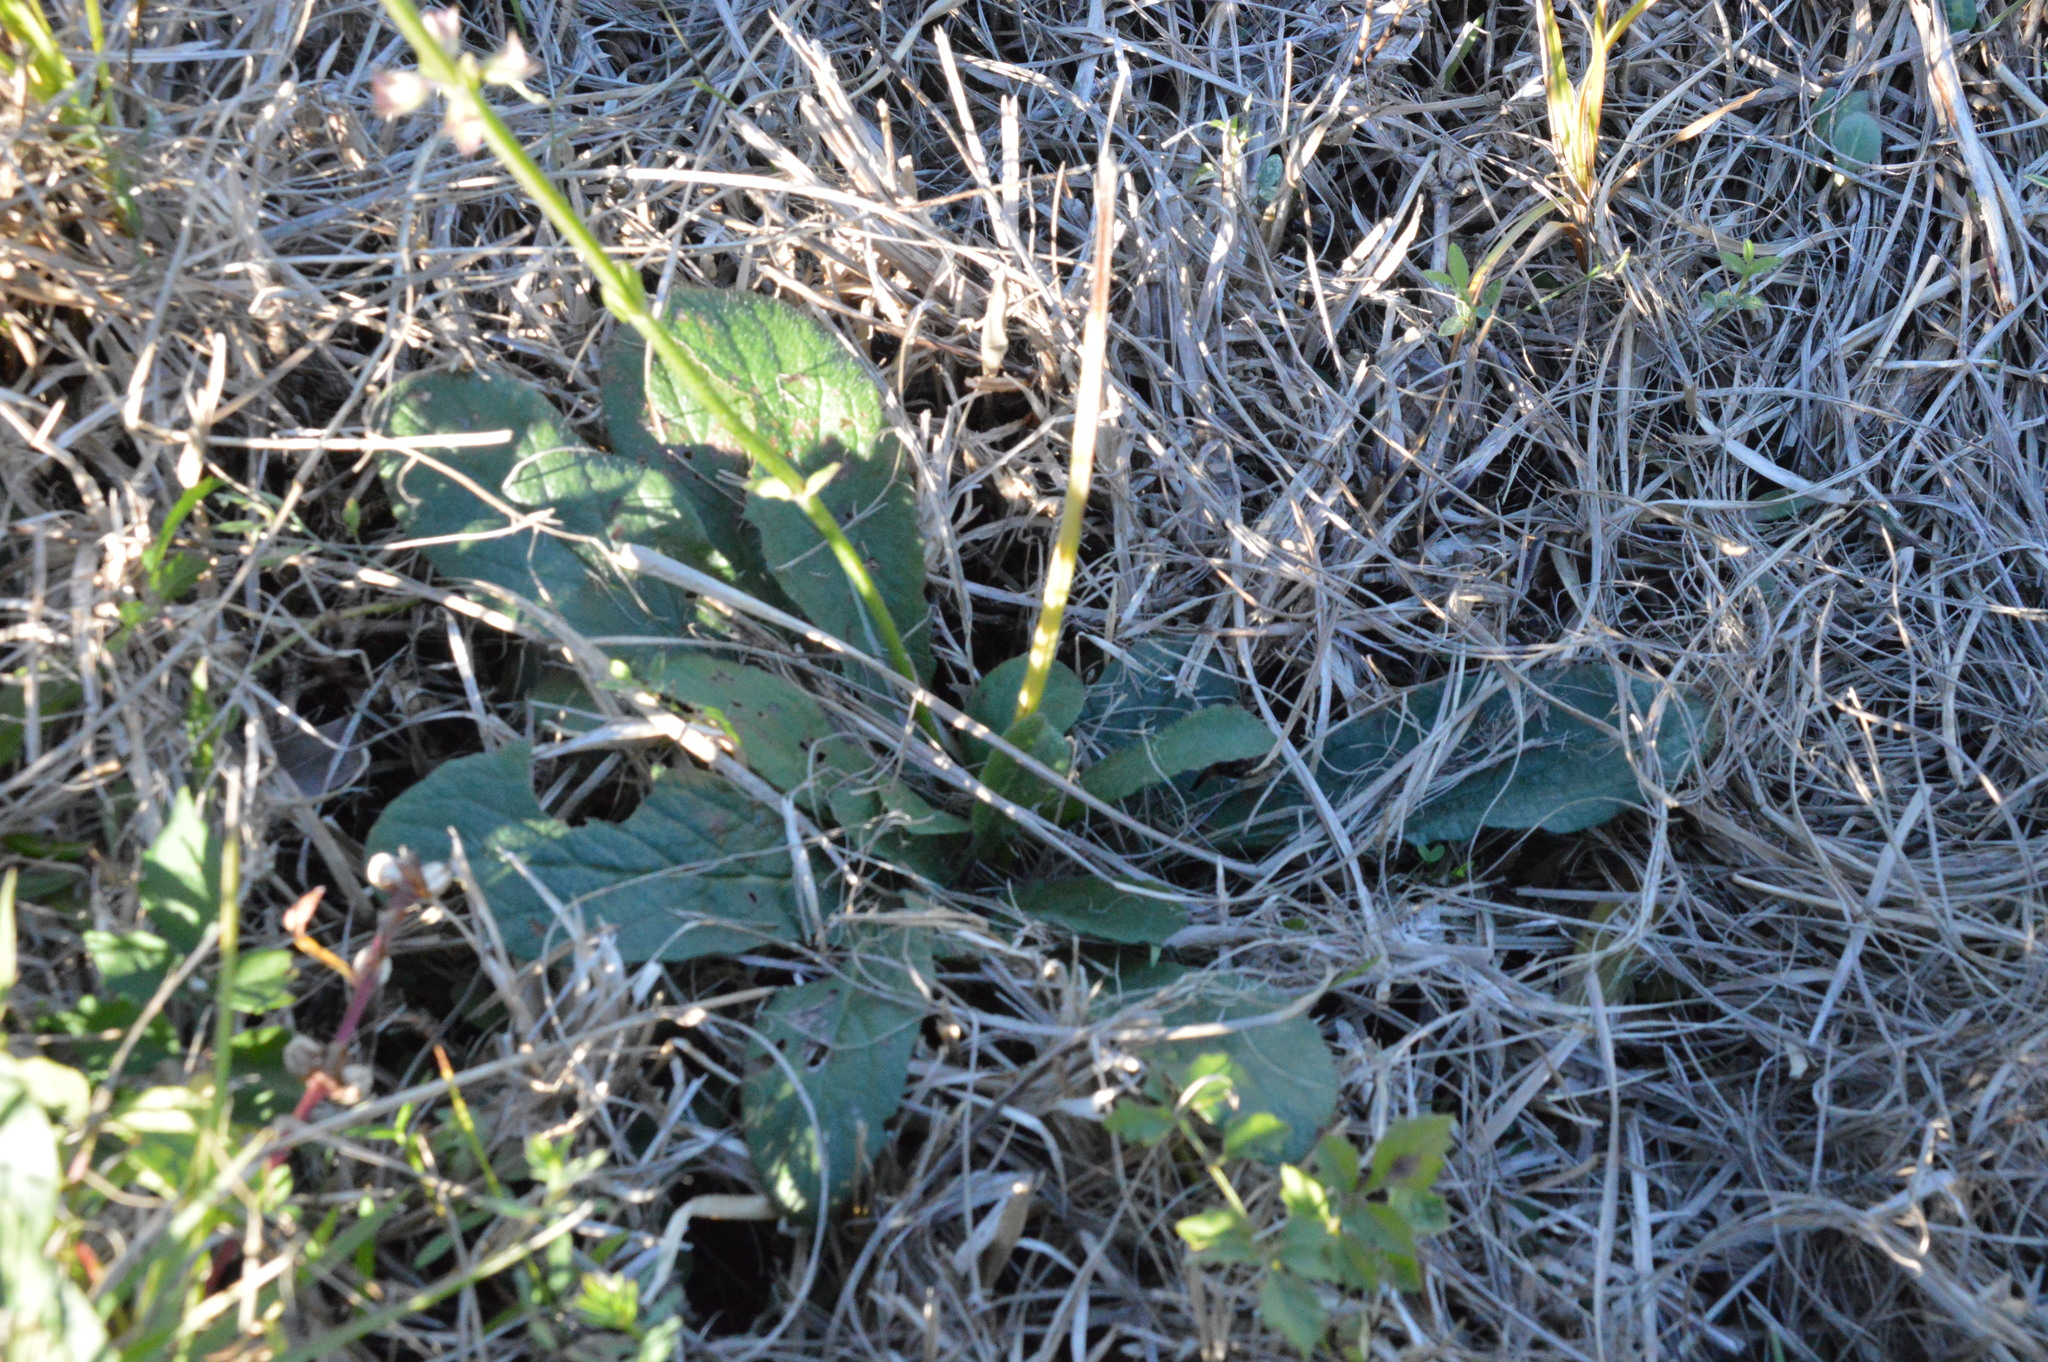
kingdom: Plantae
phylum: Tracheophyta
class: Magnoliopsida
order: Lamiales
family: Lamiaceae
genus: Salvia
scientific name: Salvia lyrata
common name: Cancerweed
